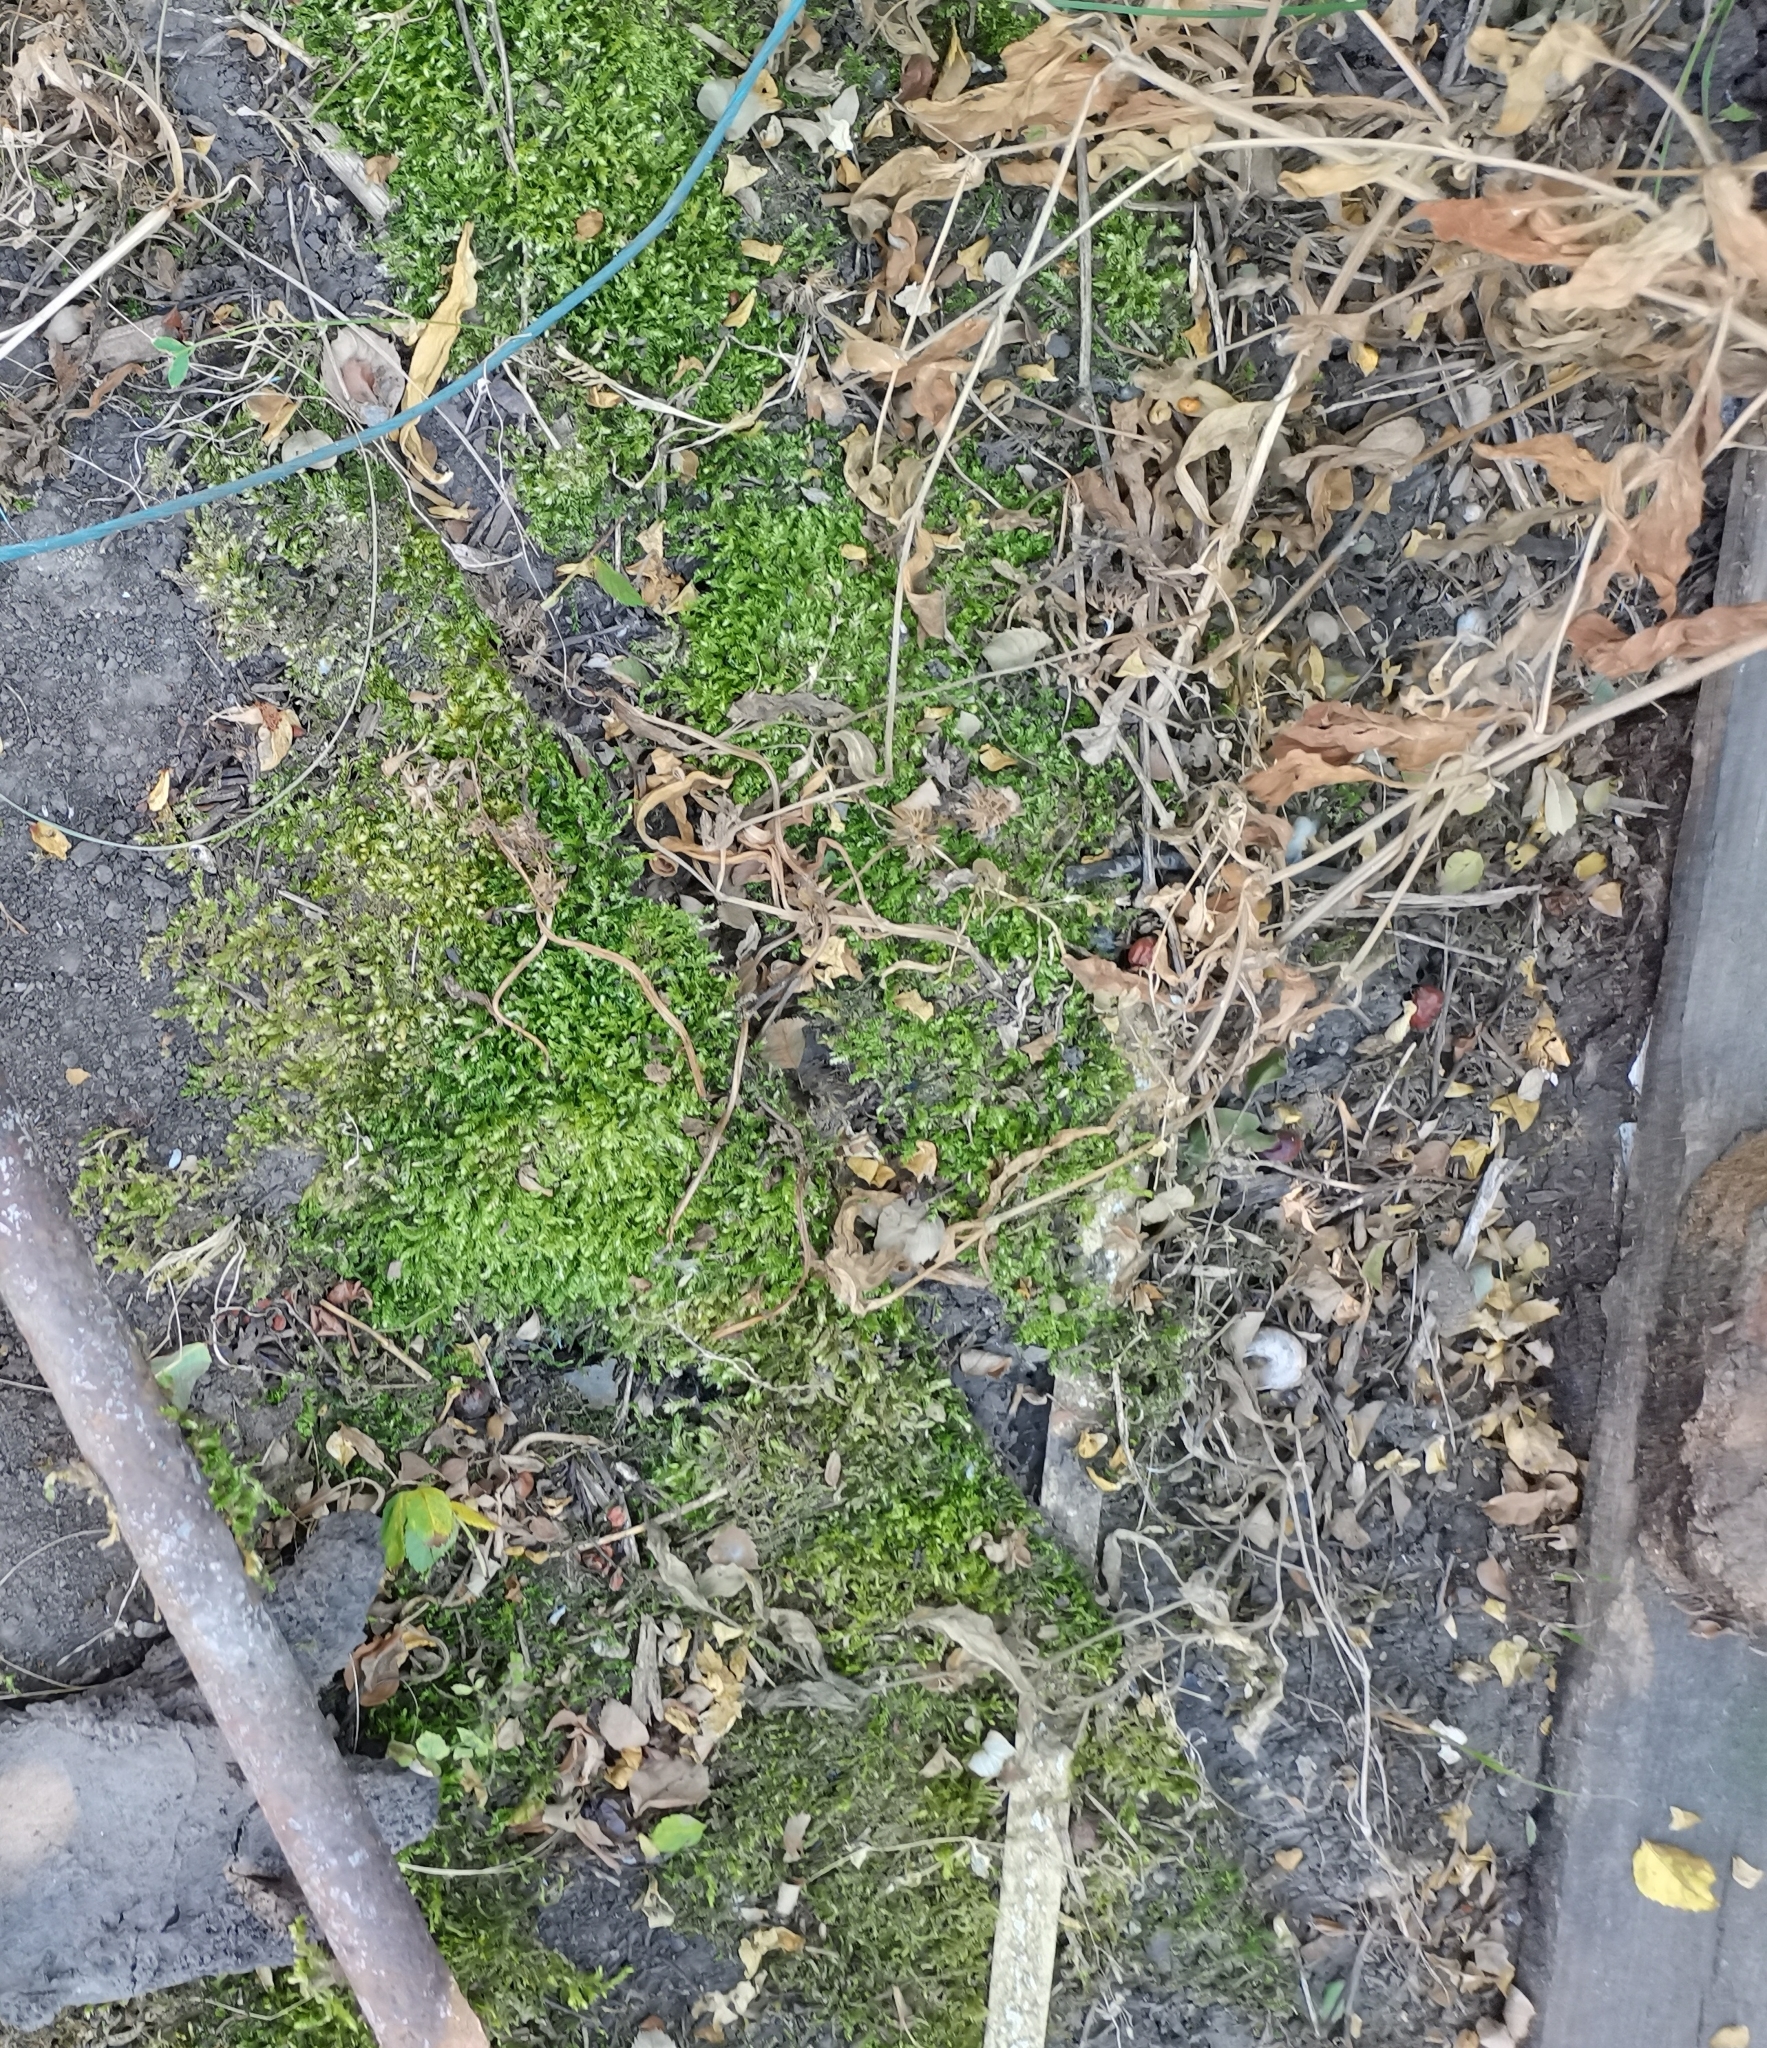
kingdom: Plantae
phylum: Bryophyta
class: Bryopsida
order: Hypnales
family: Brachytheciaceae
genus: Brachythecium
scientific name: Brachythecium rutabulum
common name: Rough-stalked feather-moss
